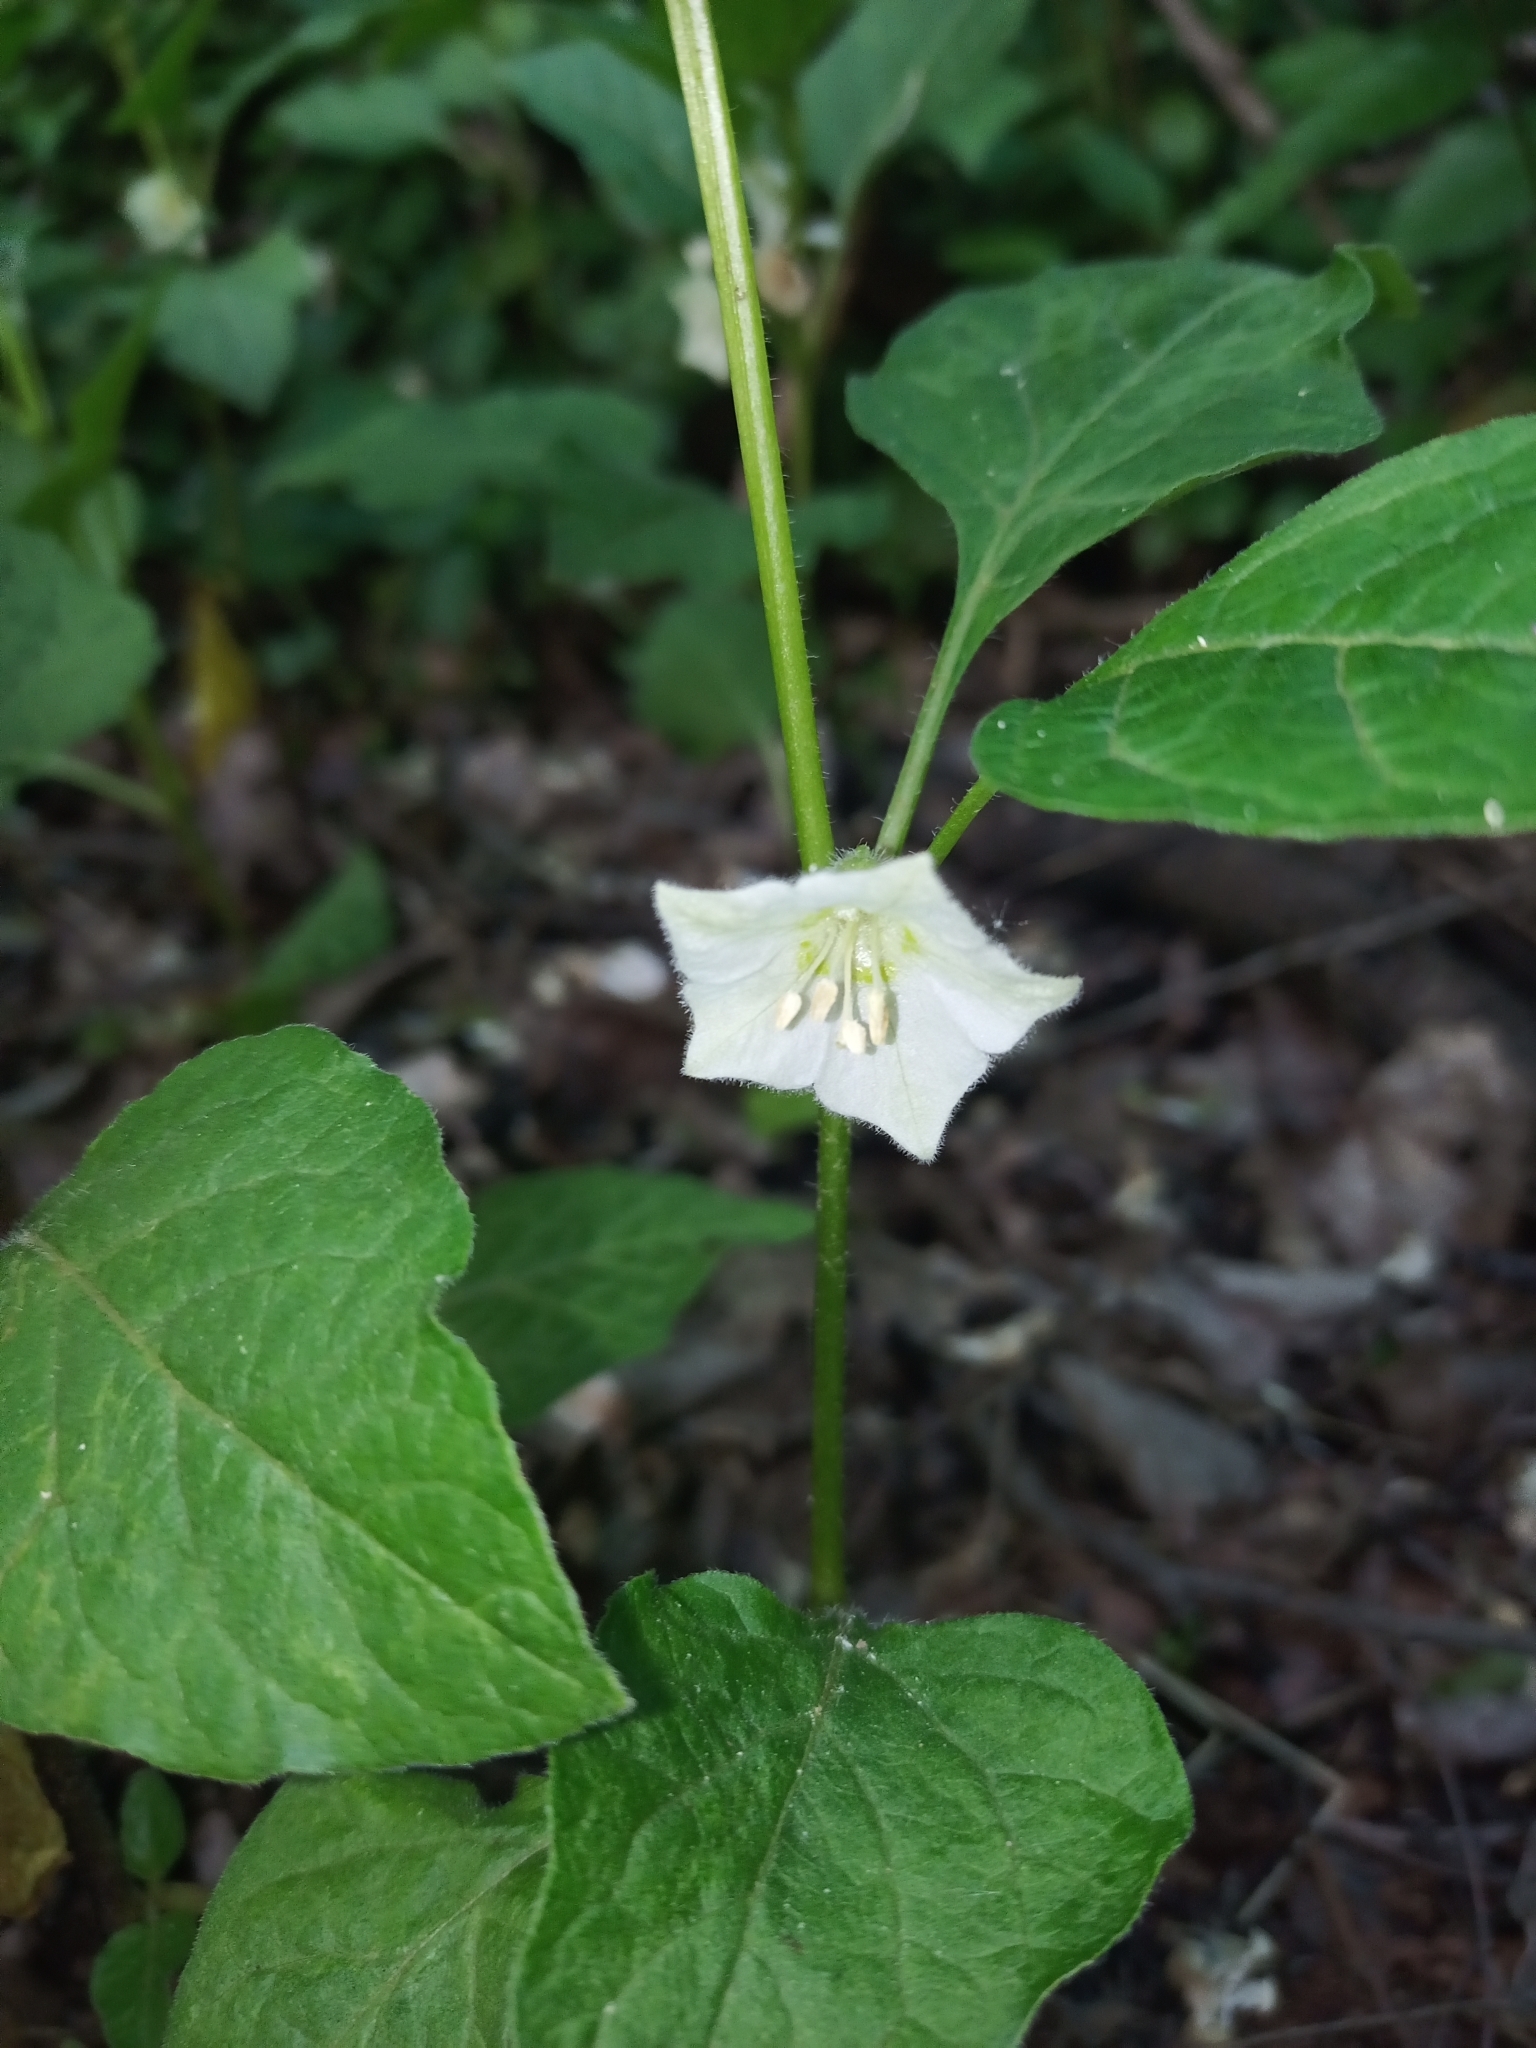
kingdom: Plantae
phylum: Tracheophyta
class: Magnoliopsida
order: Solanales
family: Solanaceae
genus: Alkekengi
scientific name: Alkekengi officinarum
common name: Japanese-lantern
